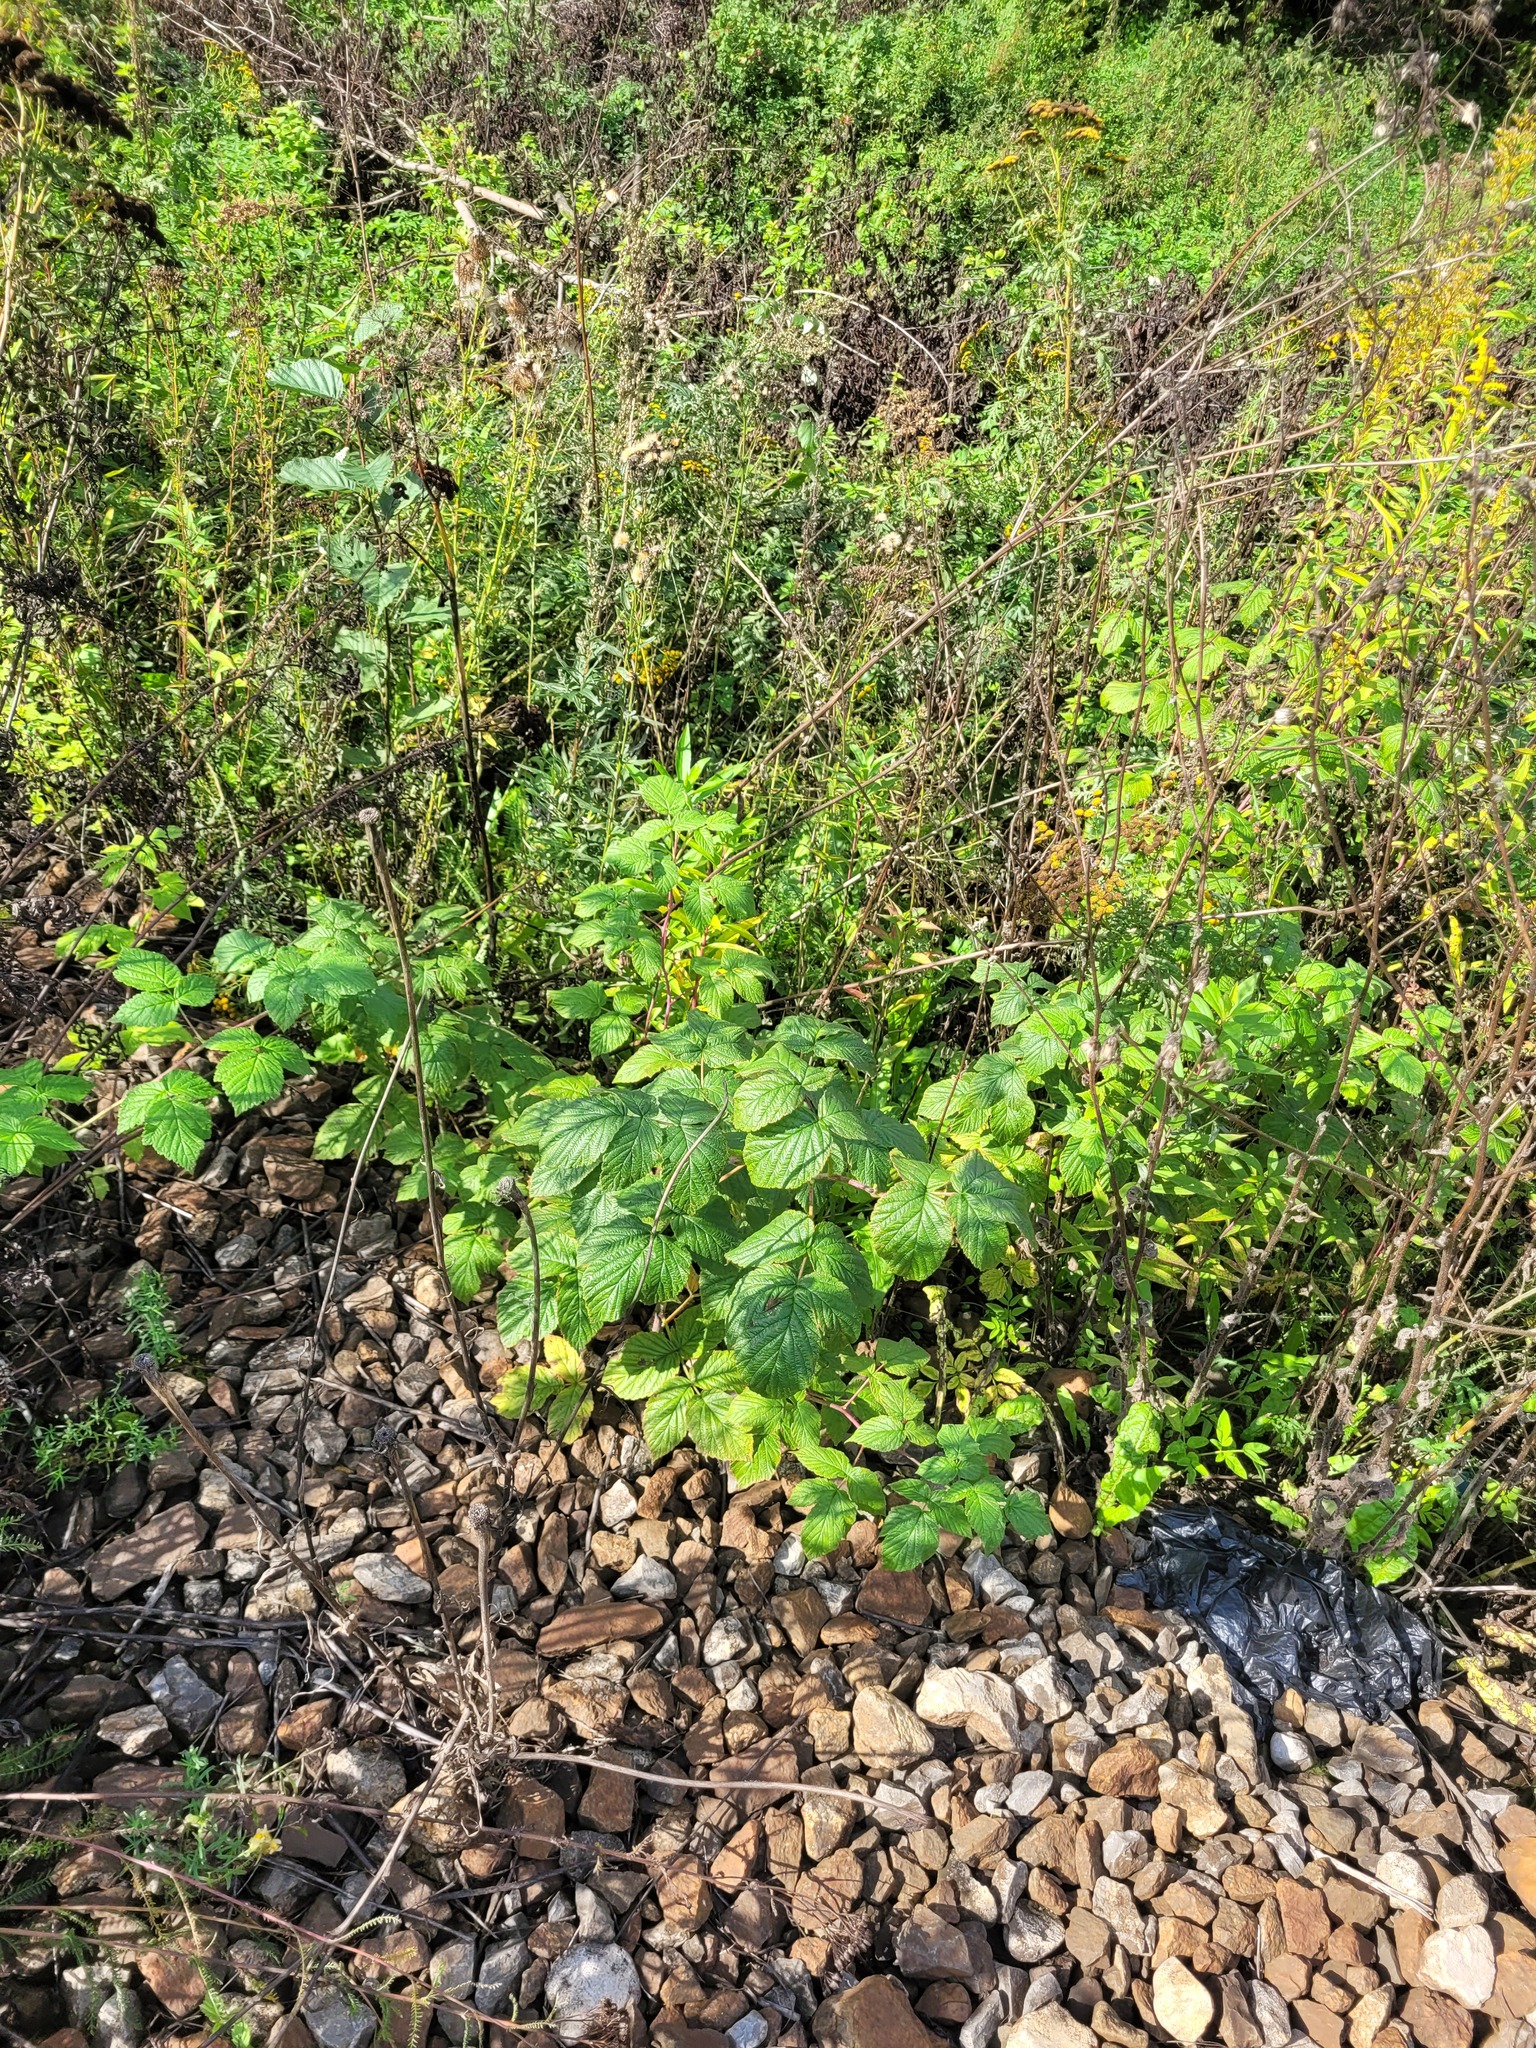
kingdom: Plantae
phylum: Tracheophyta
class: Magnoliopsida
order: Rosales
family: Rosaceae
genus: Rubus
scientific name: Rubus idaeus
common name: Raspberry
